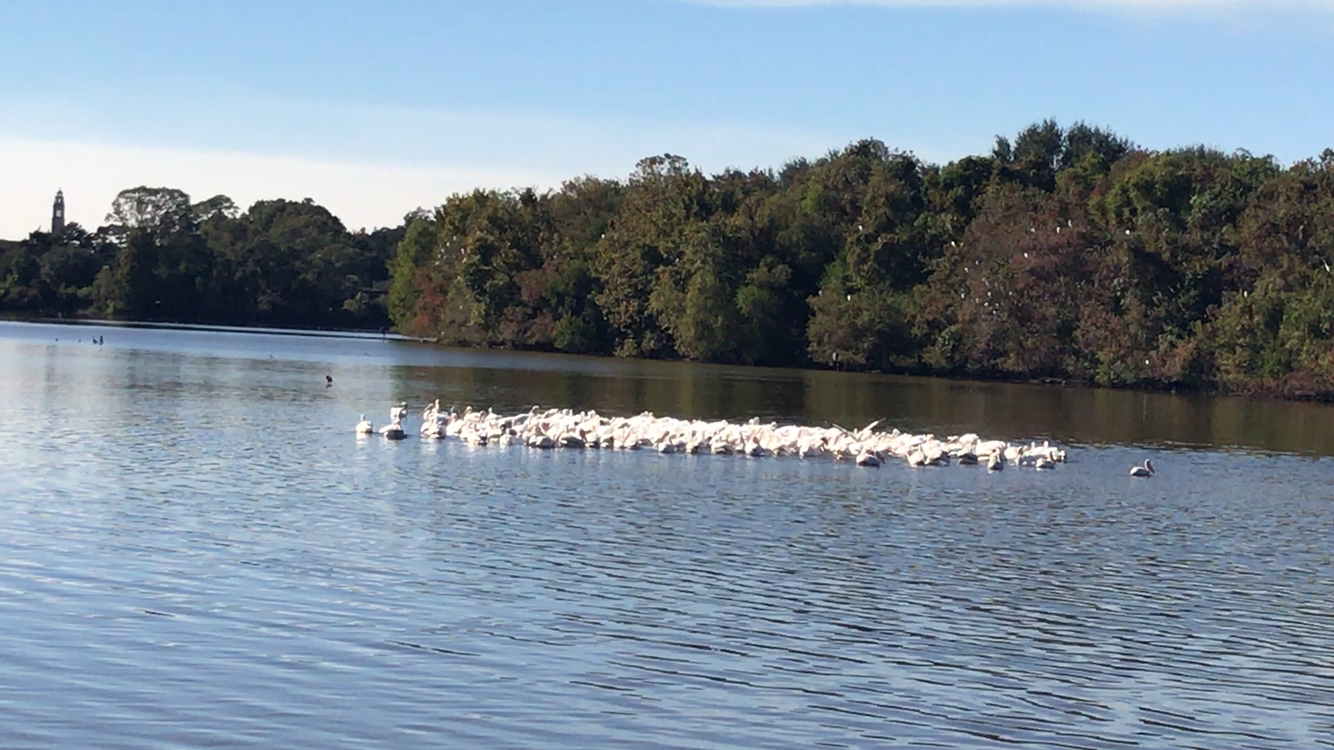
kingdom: Animalia
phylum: Chordata
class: Aves
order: Pelecaniformes
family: Pelecanidae
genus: Pelecanus
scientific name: Pelecanus erythrorhynchos
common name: American white pelican
